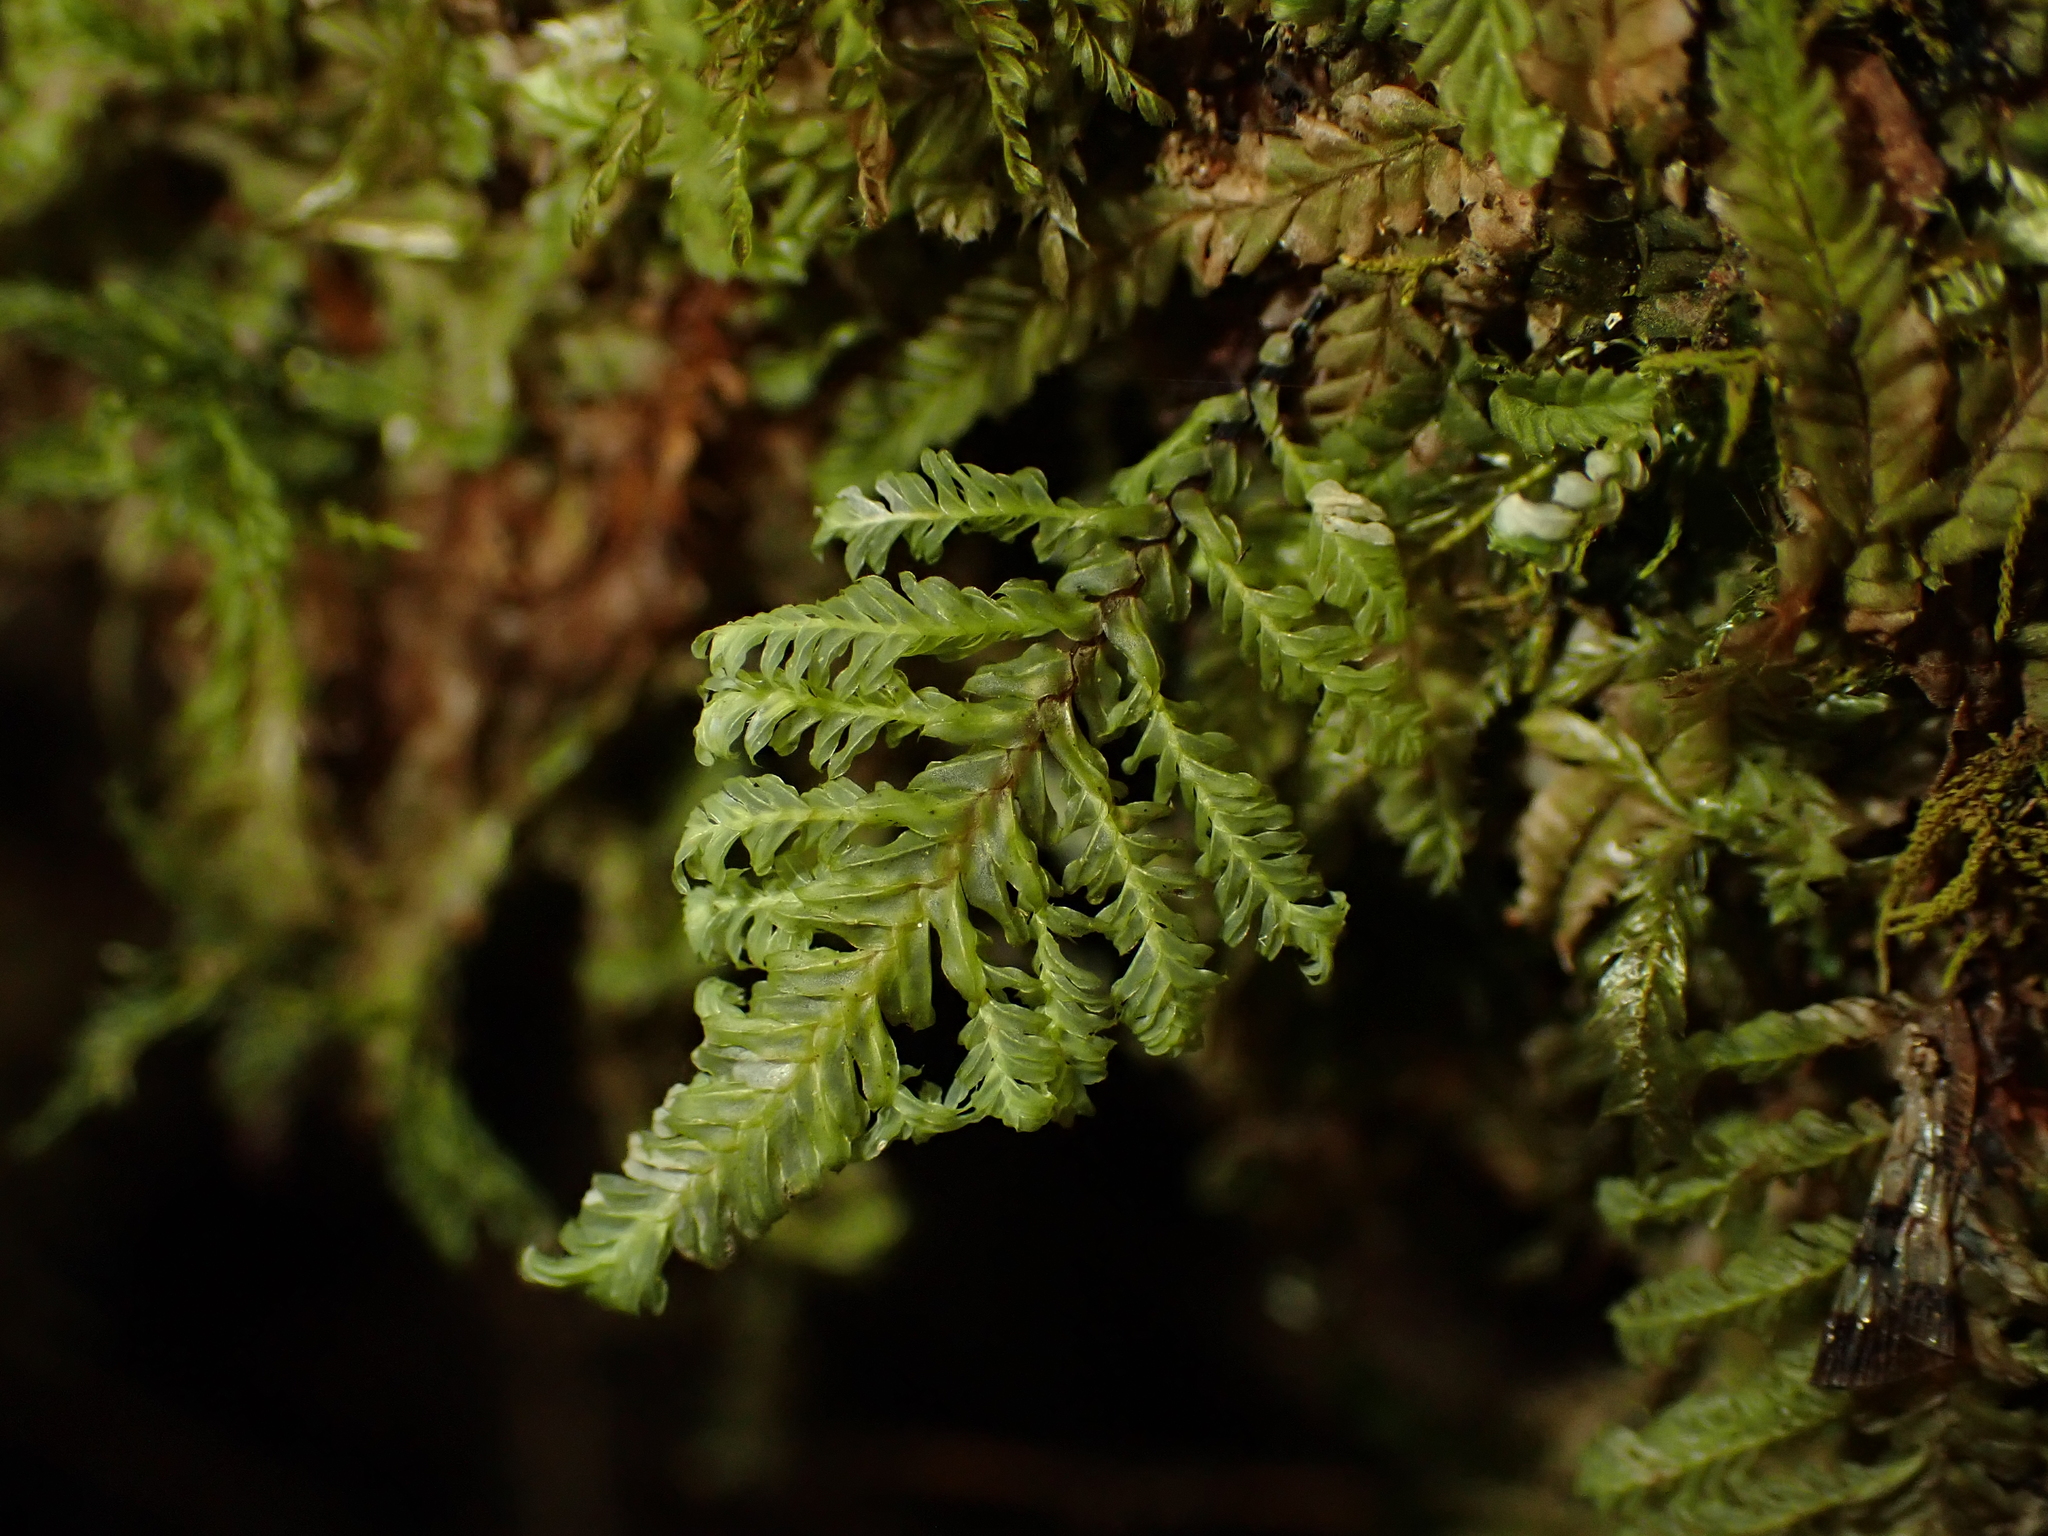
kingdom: Plantae
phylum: Bryophyta
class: Bryopsida
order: Hypopterygiales
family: Hypopterygiaceae
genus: Lopidium
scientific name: Lopidium concinnum
